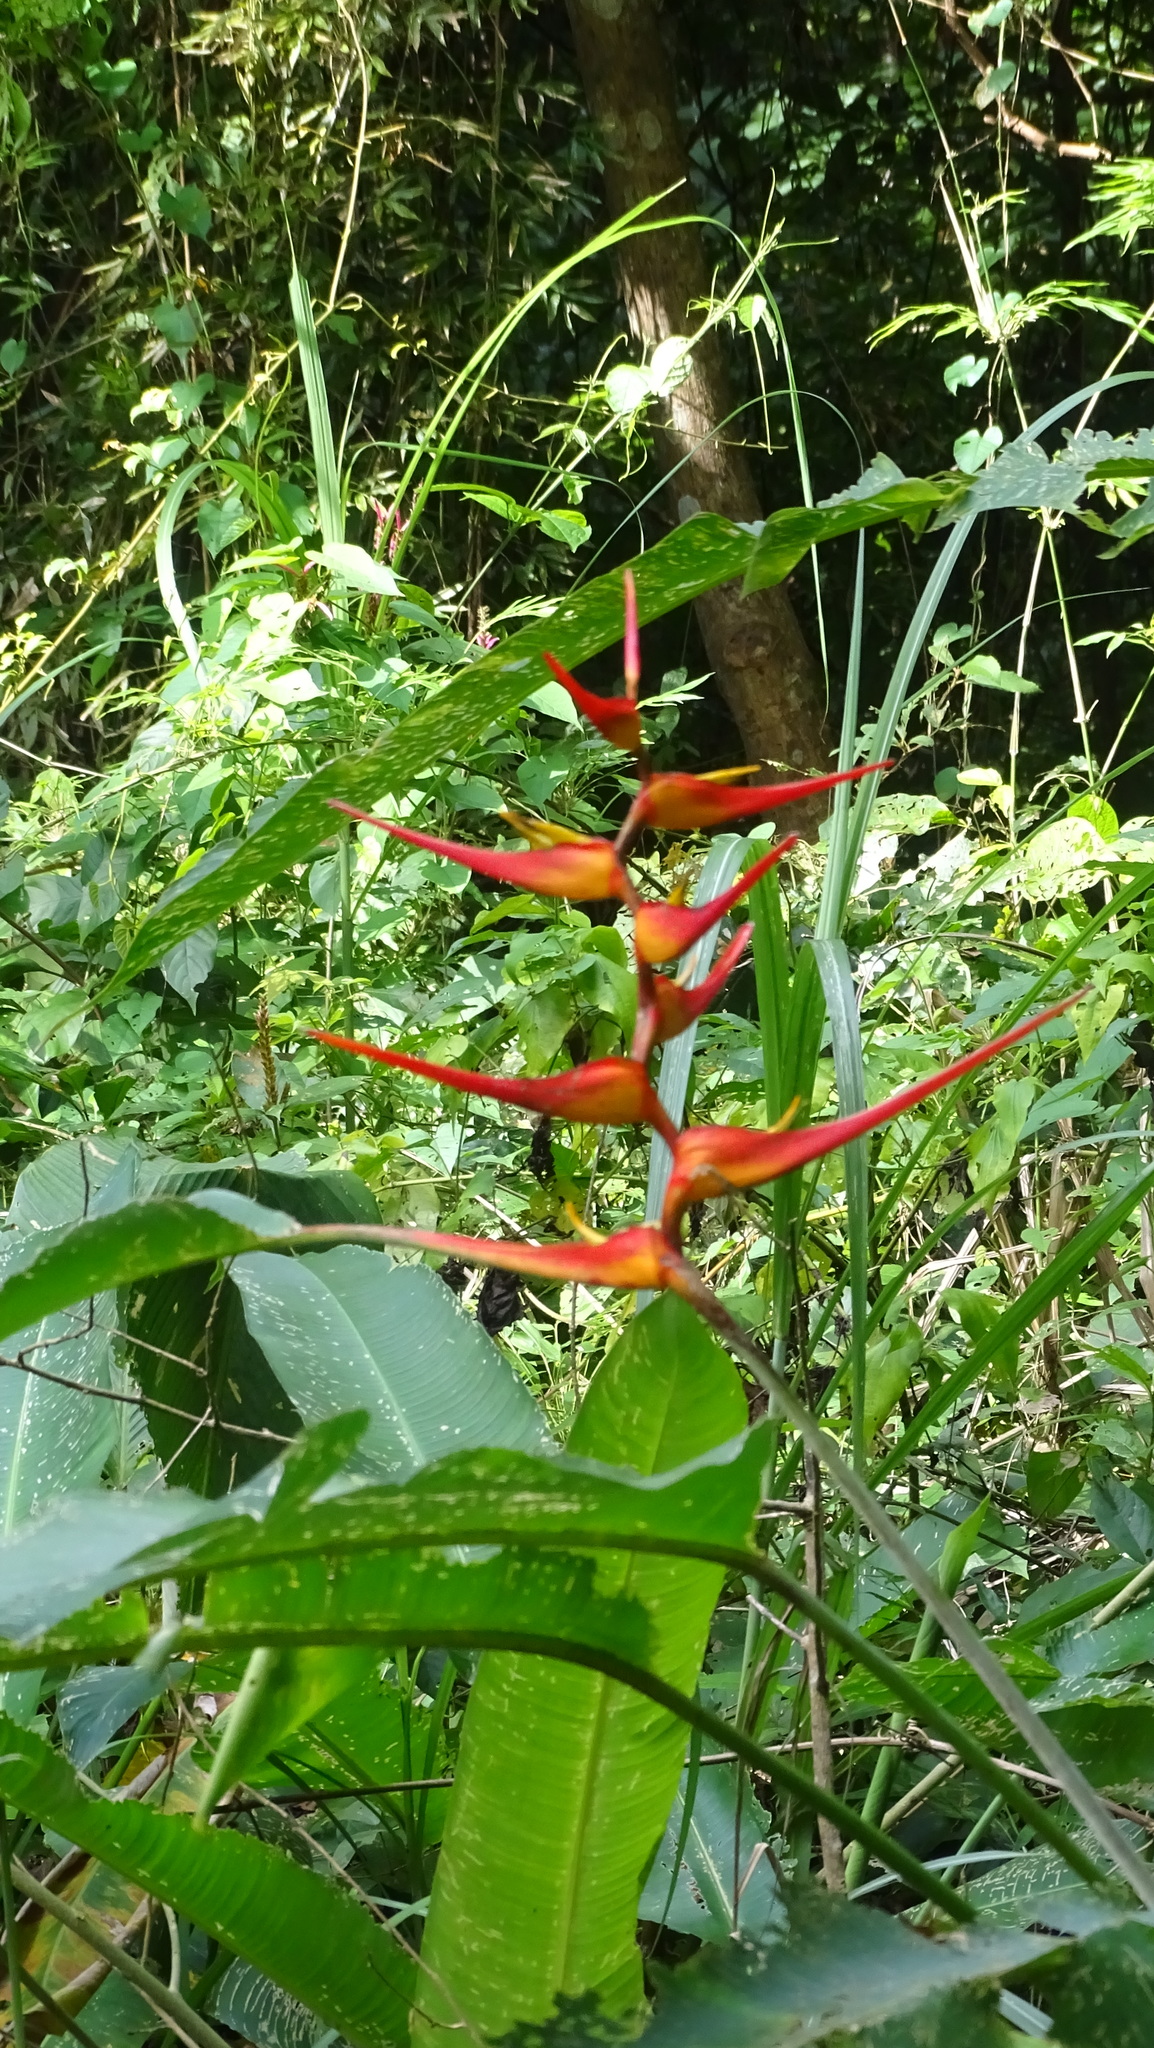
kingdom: Plantae
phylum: Tracheophyta
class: Liliopsida
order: Zingiberales
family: Heliconiaceae
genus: Heliconia
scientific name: Heliconia latispatha
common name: Expanded lobsterclaw
